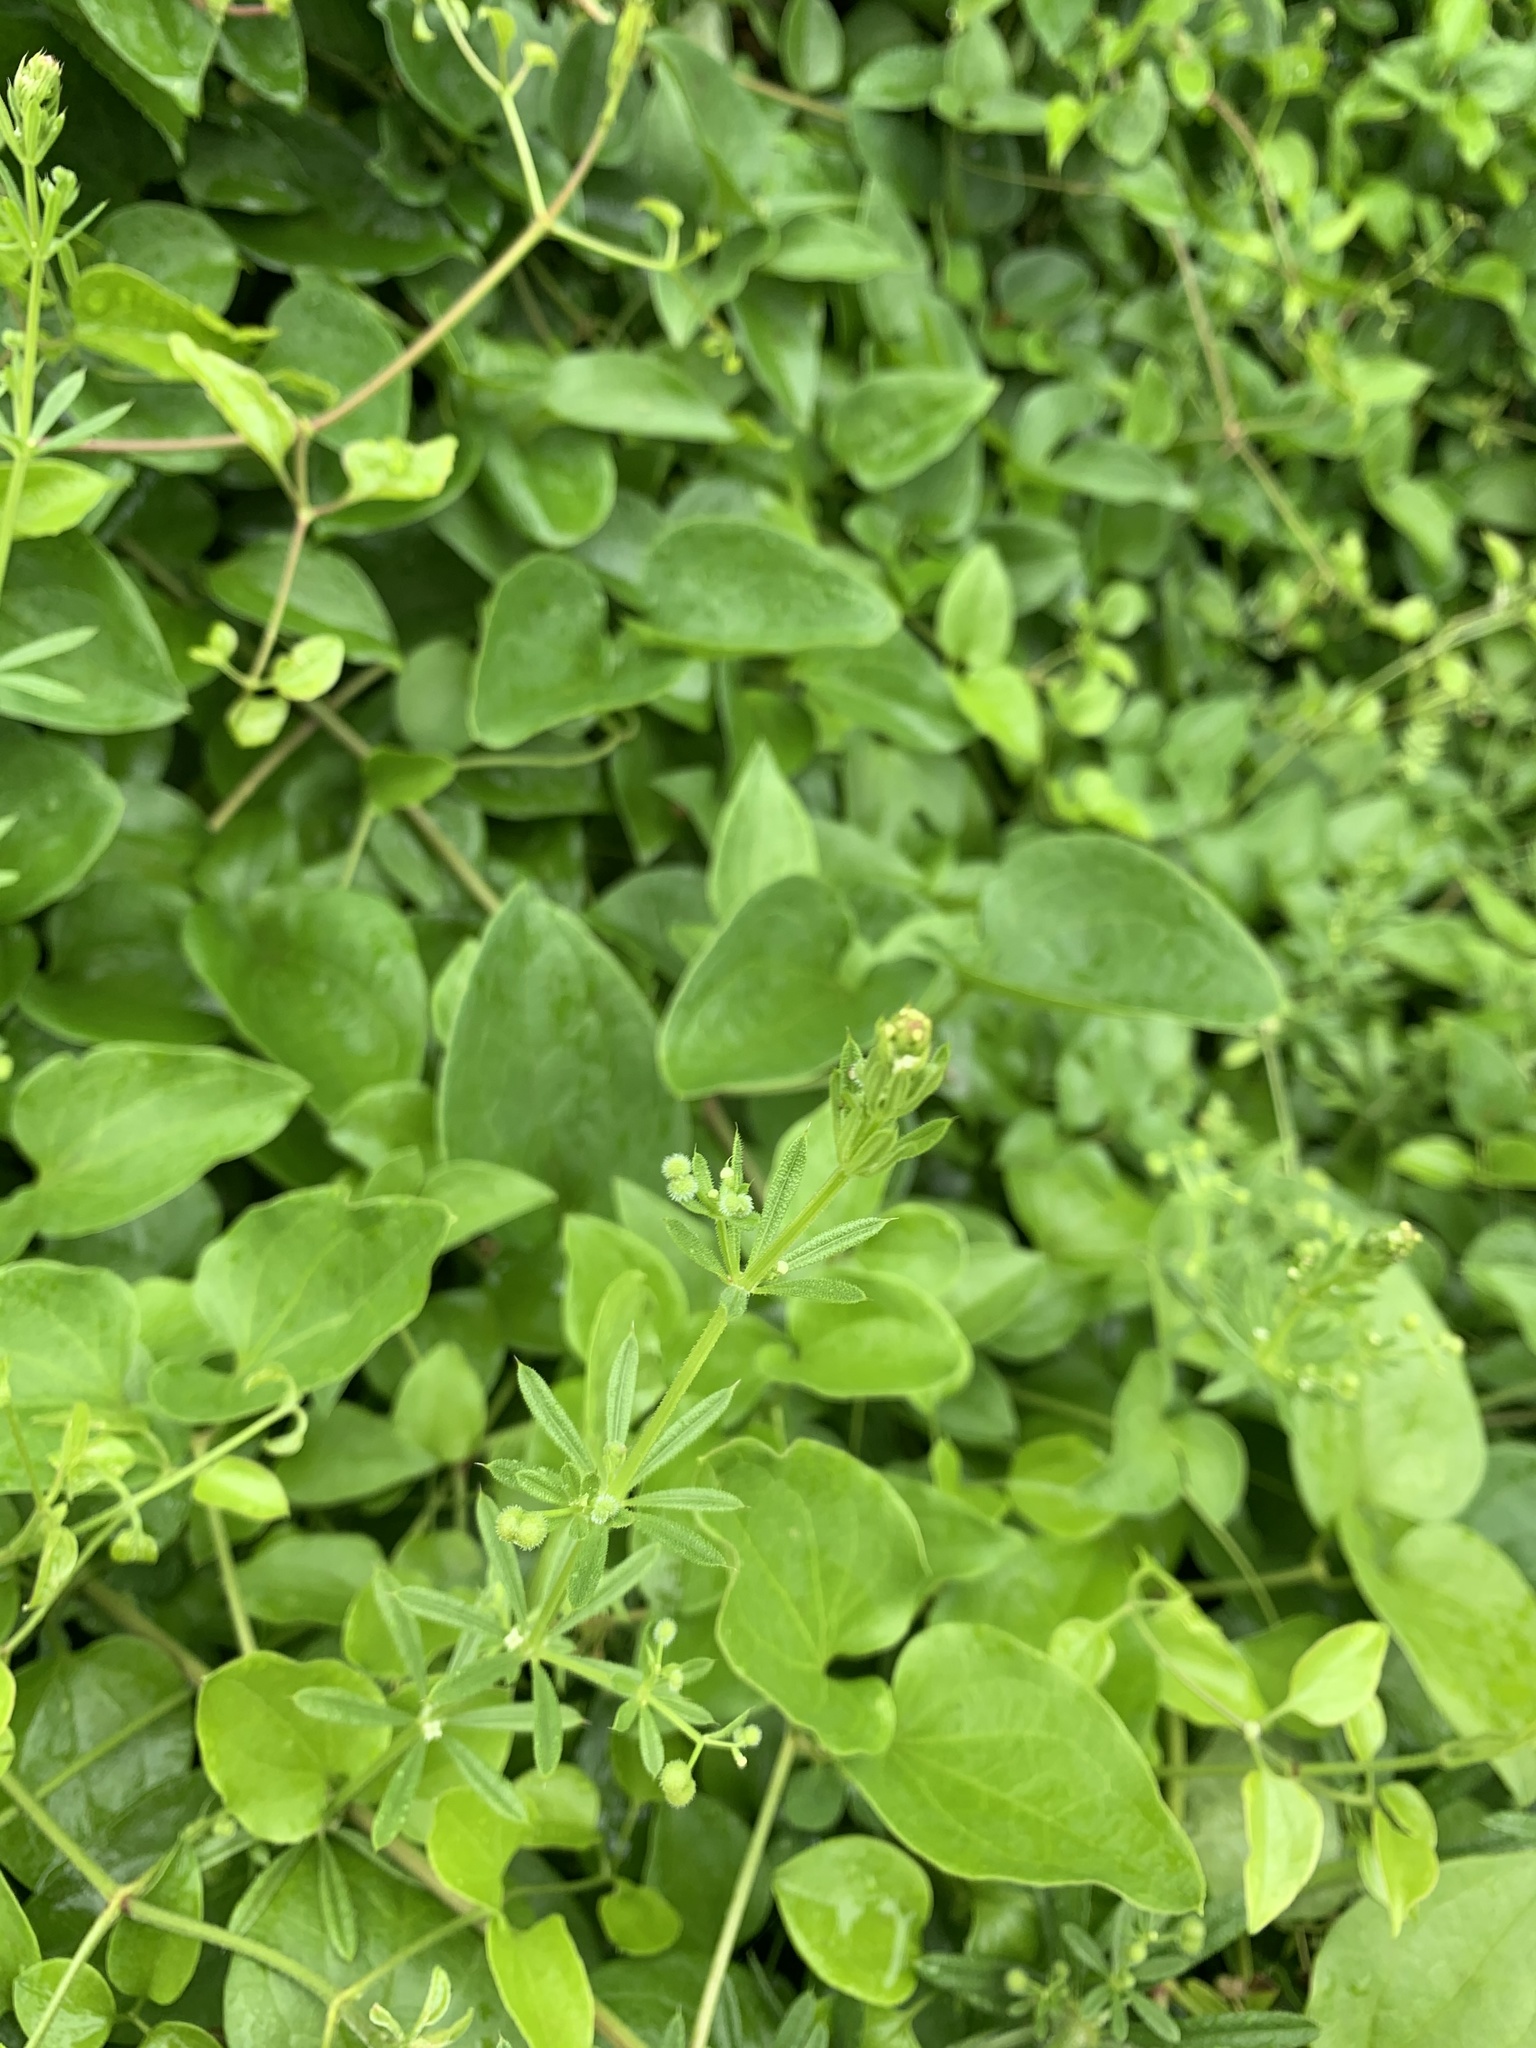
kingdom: Plantae
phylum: Tracheophyta
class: Magnoliopsida
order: Gentianales
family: Rubiaceae
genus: Galium
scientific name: Galium aparine
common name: Cleavers
